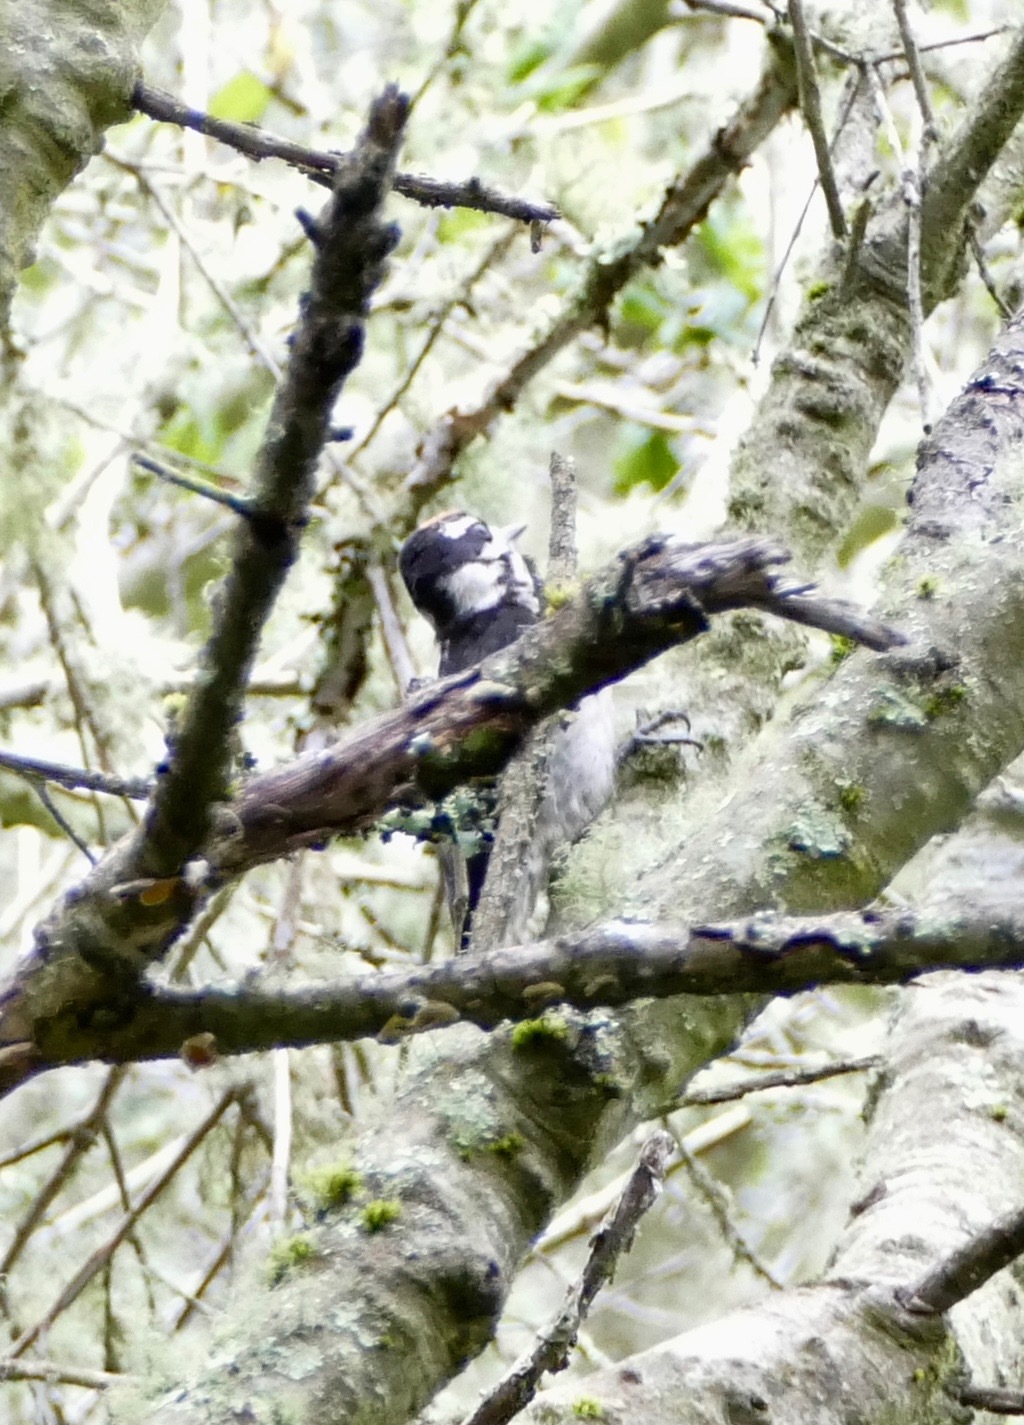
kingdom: Animalia
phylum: Chordata
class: Aves
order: Piciformes
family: Picidae
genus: Leuconotopicus
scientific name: Leuconotopicus villosus
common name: Hairy woodpecker
